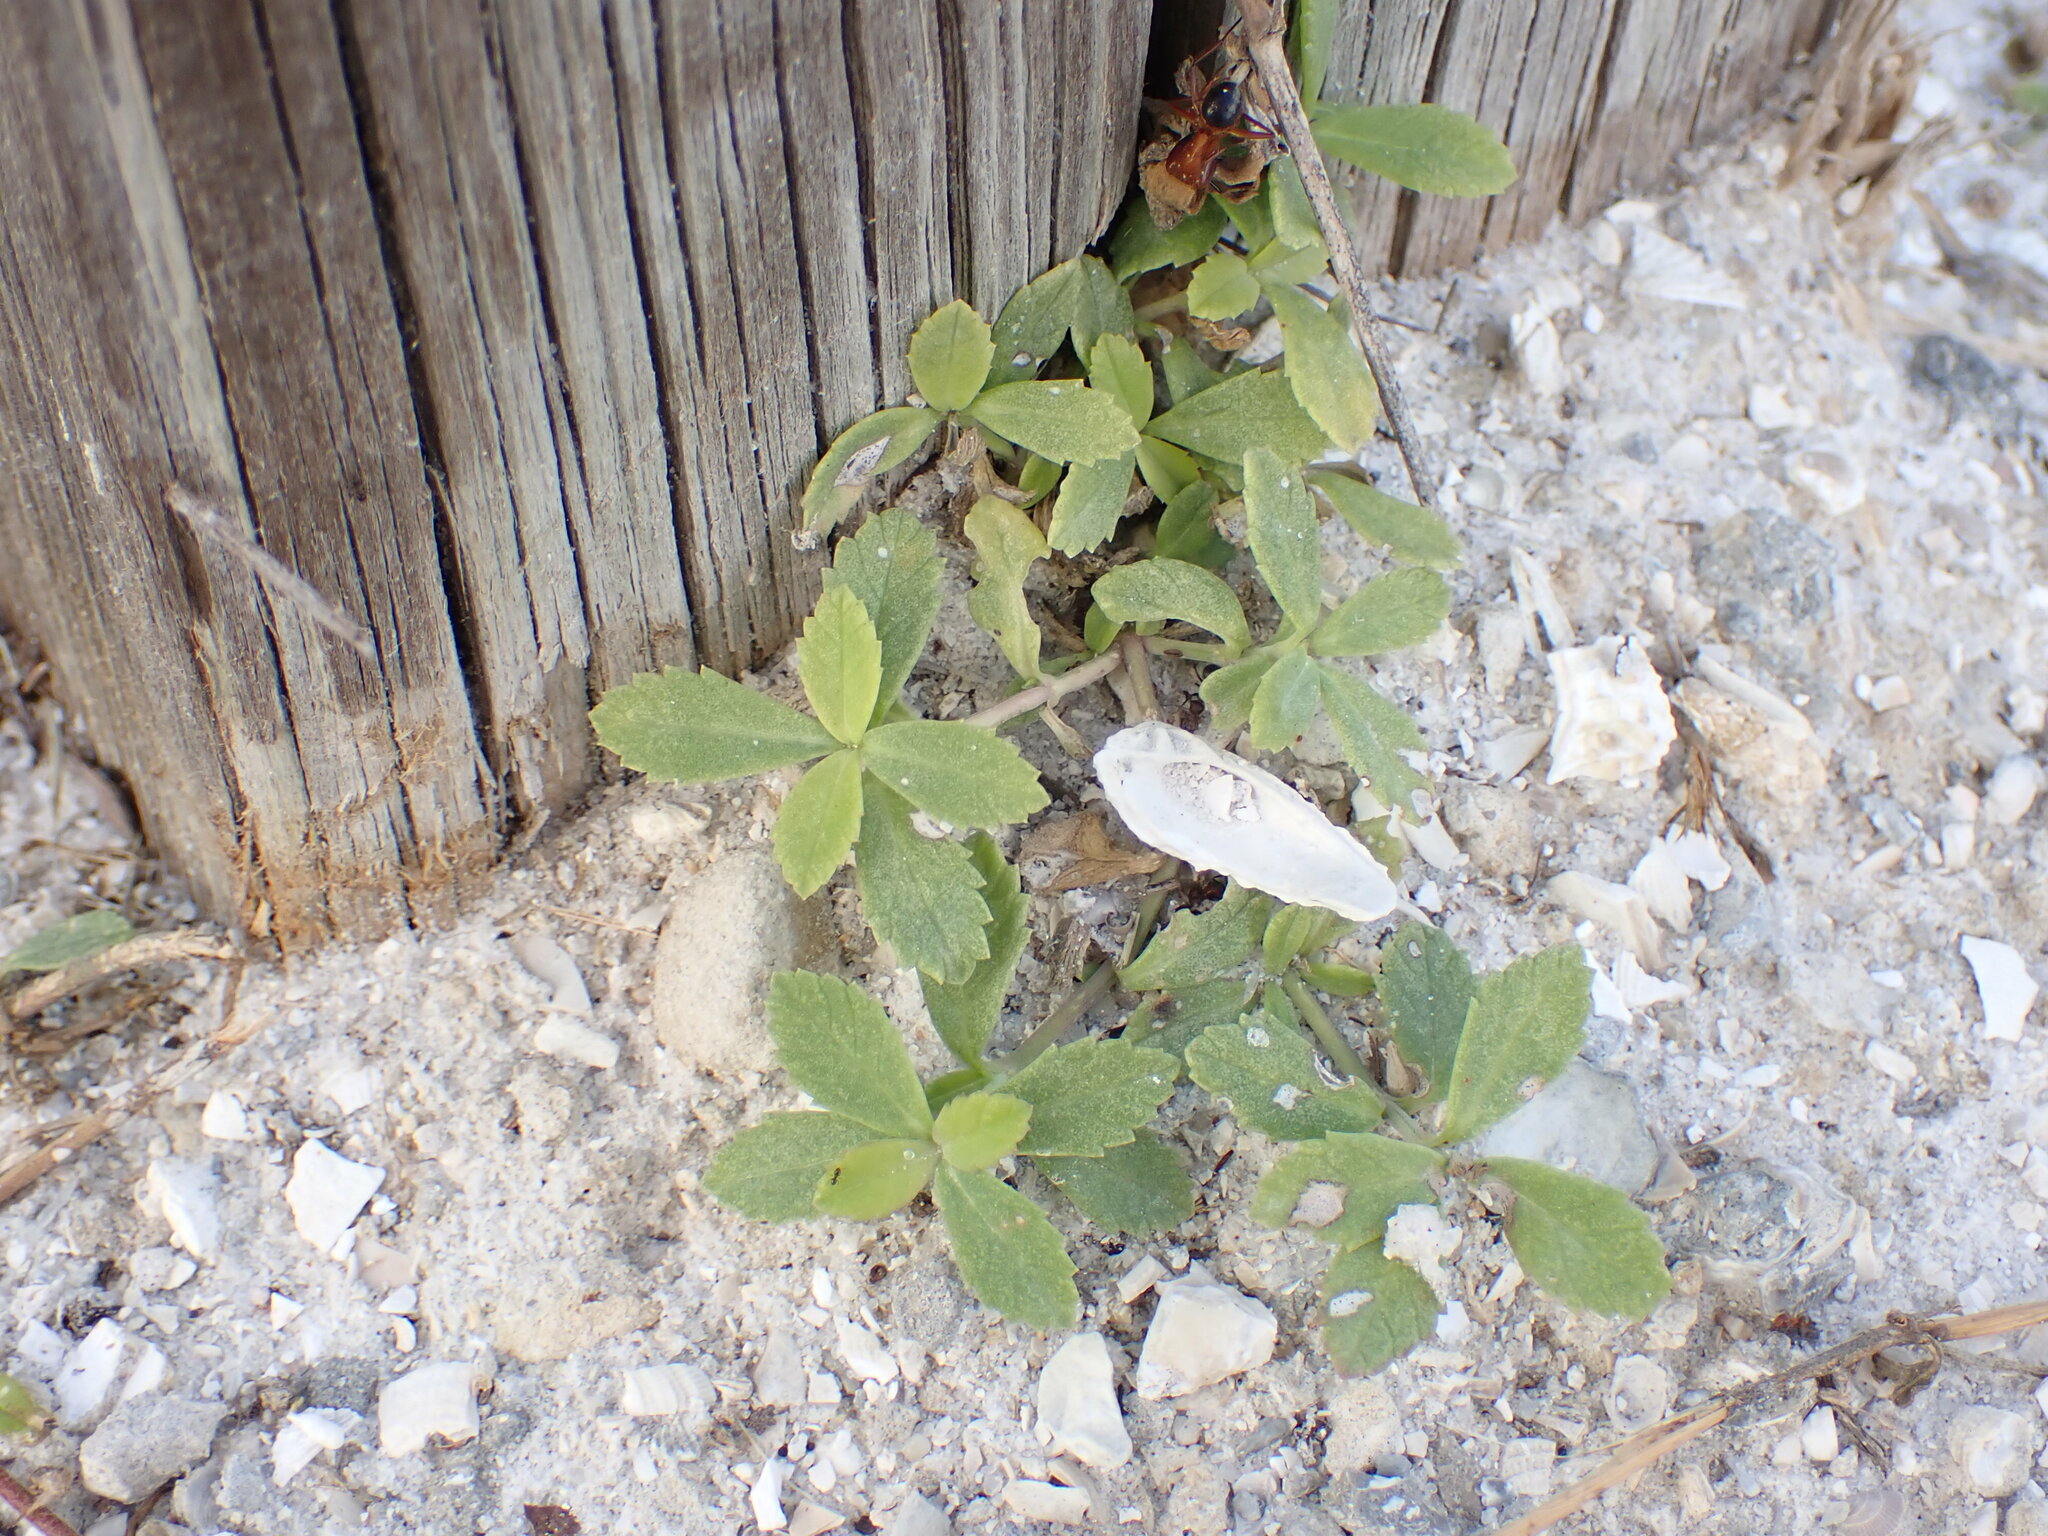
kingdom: Plantae
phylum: Tracheophyta
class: Magnoliopsida
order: Lamiales
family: Verbenaceae
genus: Phyla
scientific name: Phyla nodiflora
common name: Frogfruit
